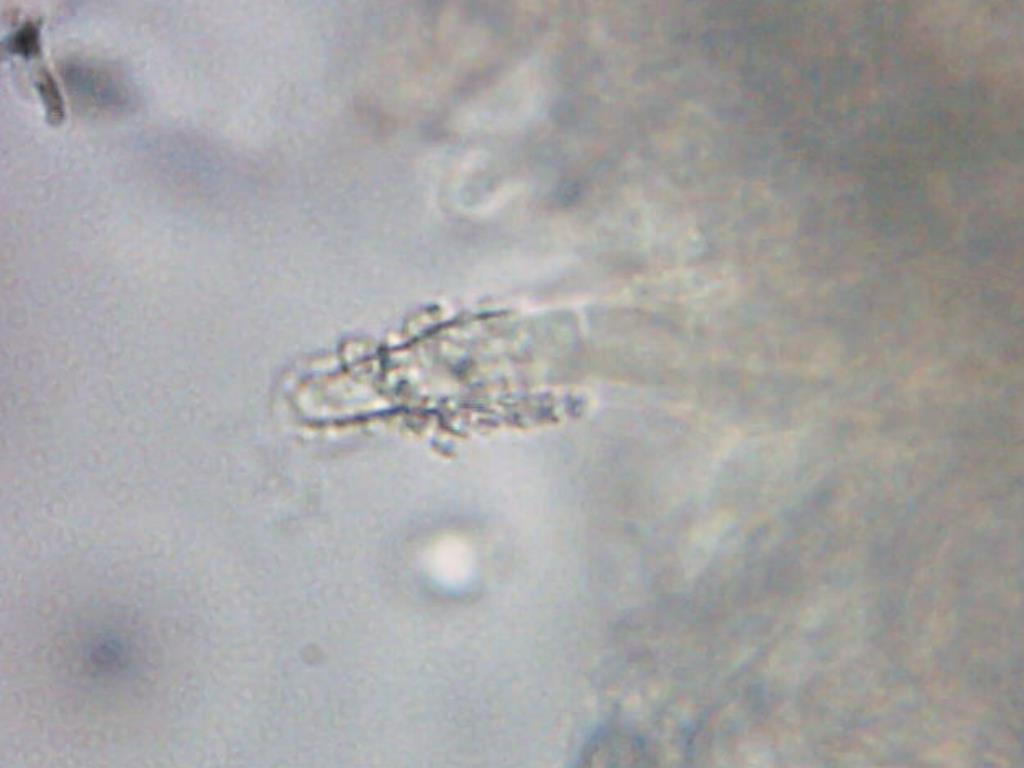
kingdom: Fungi
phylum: Basidiomycota
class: Agaricomycetes
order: Agaricales
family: Pleurotaceae
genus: Hohenbuehelia
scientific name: Hohenbuehelia mastrucata
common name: Woolly oyster
